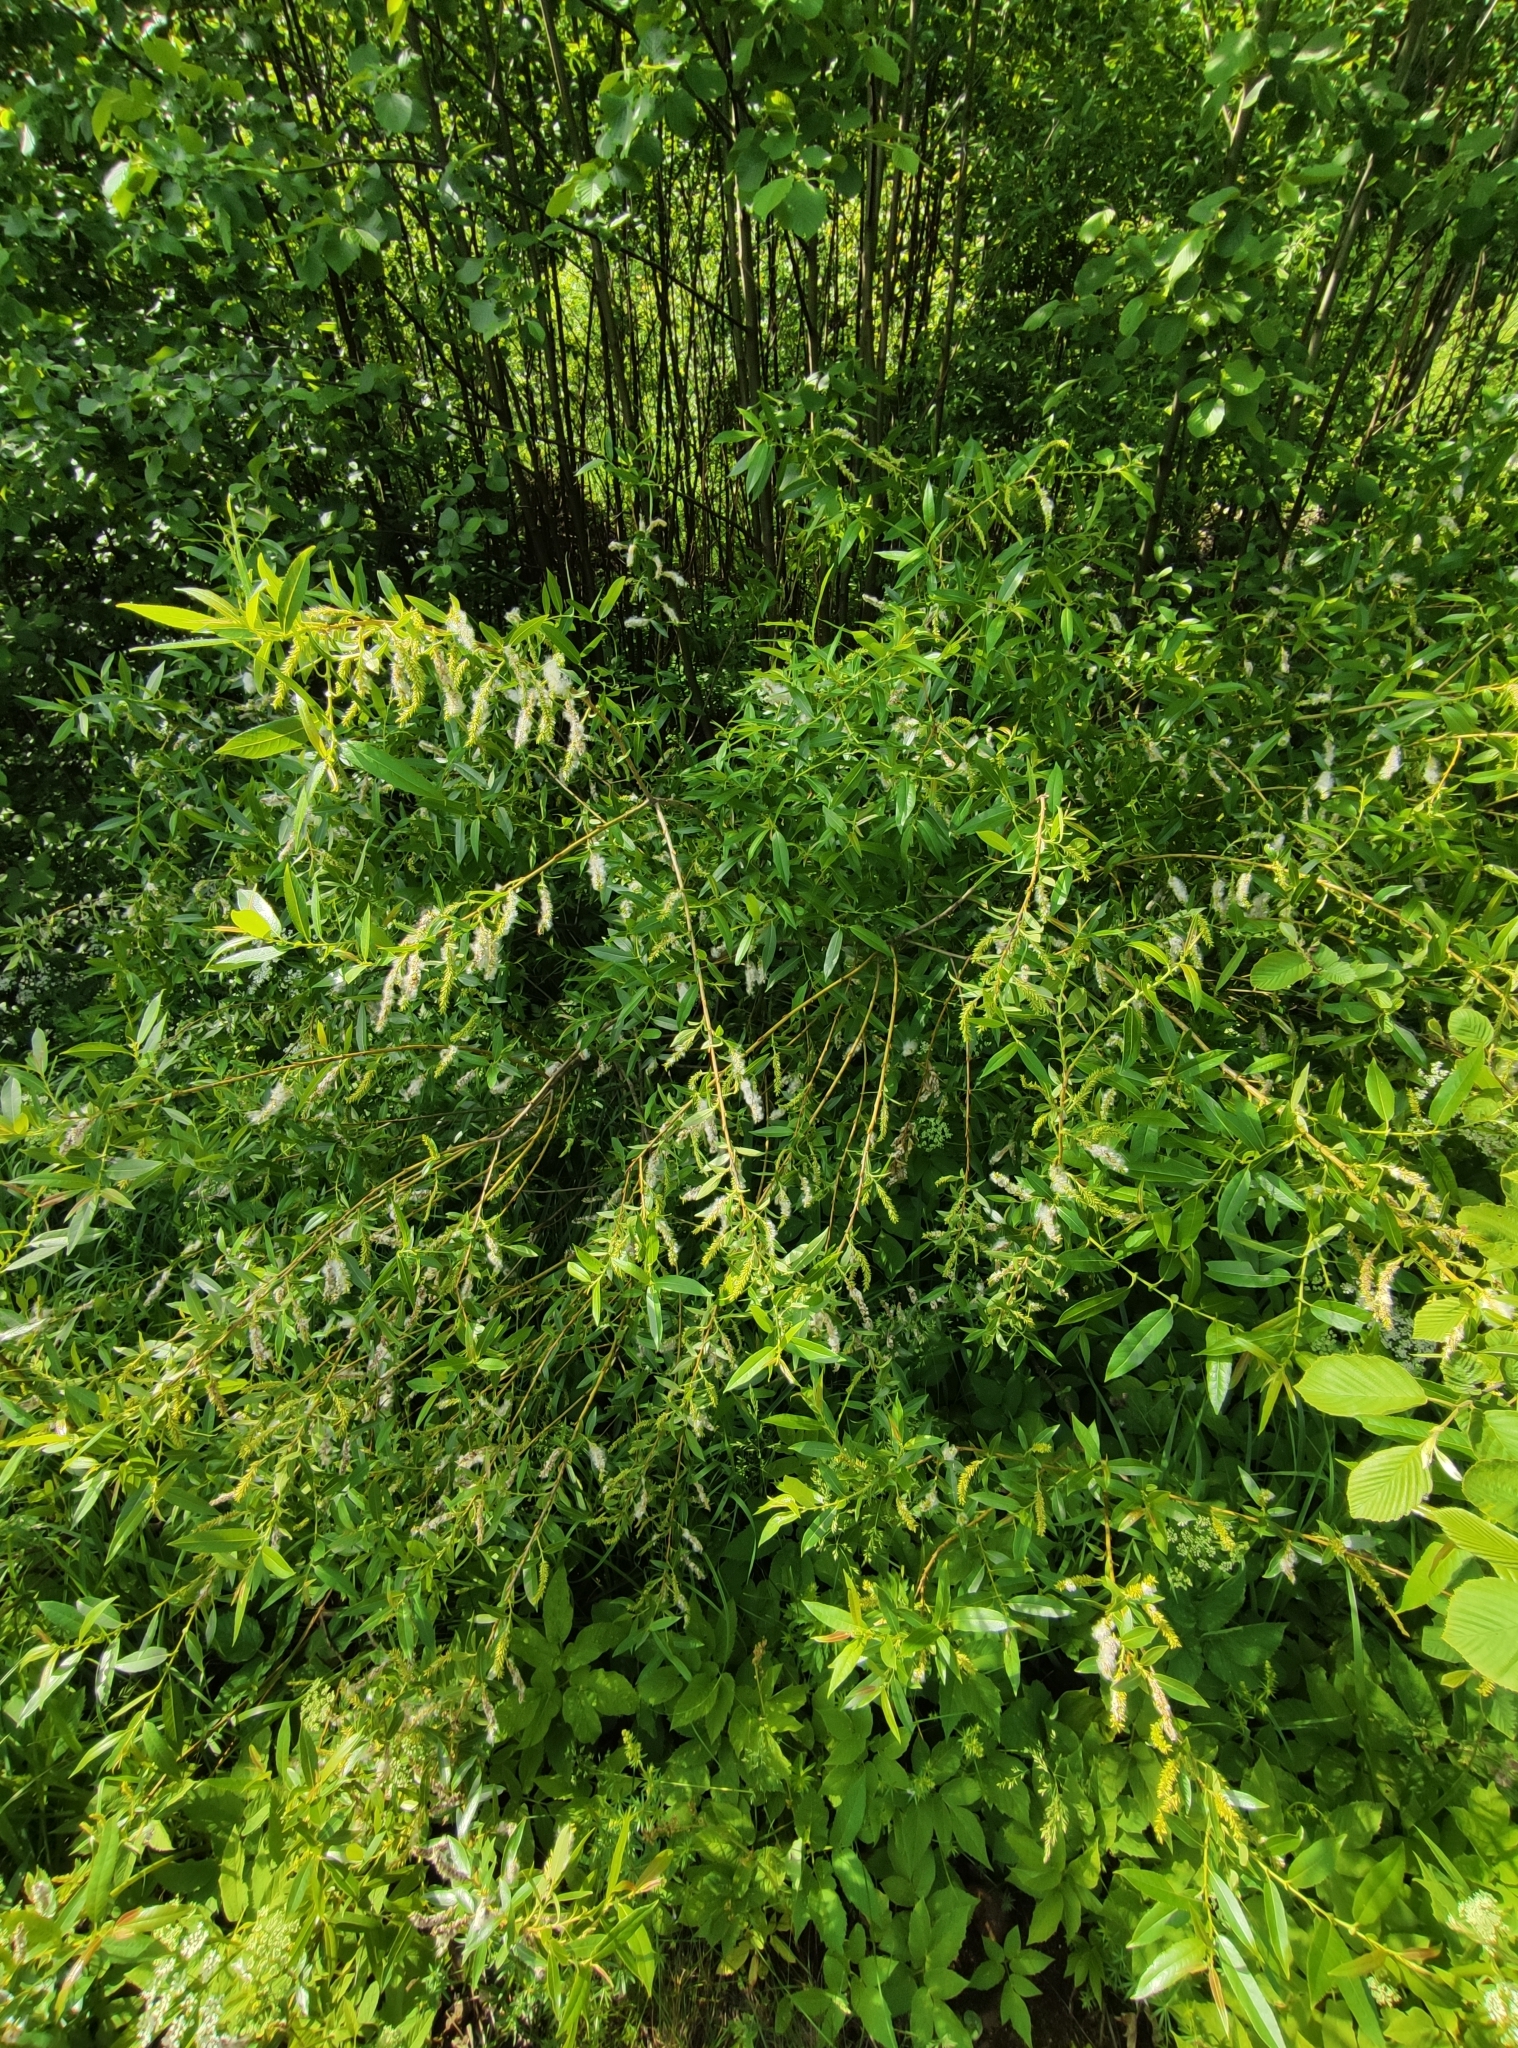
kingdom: Plantae
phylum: Tracheophyta
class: Magnoliopsida
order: Malpighiales
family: Salicaceae
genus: Salix
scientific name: Salix triandra
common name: Almond willow
